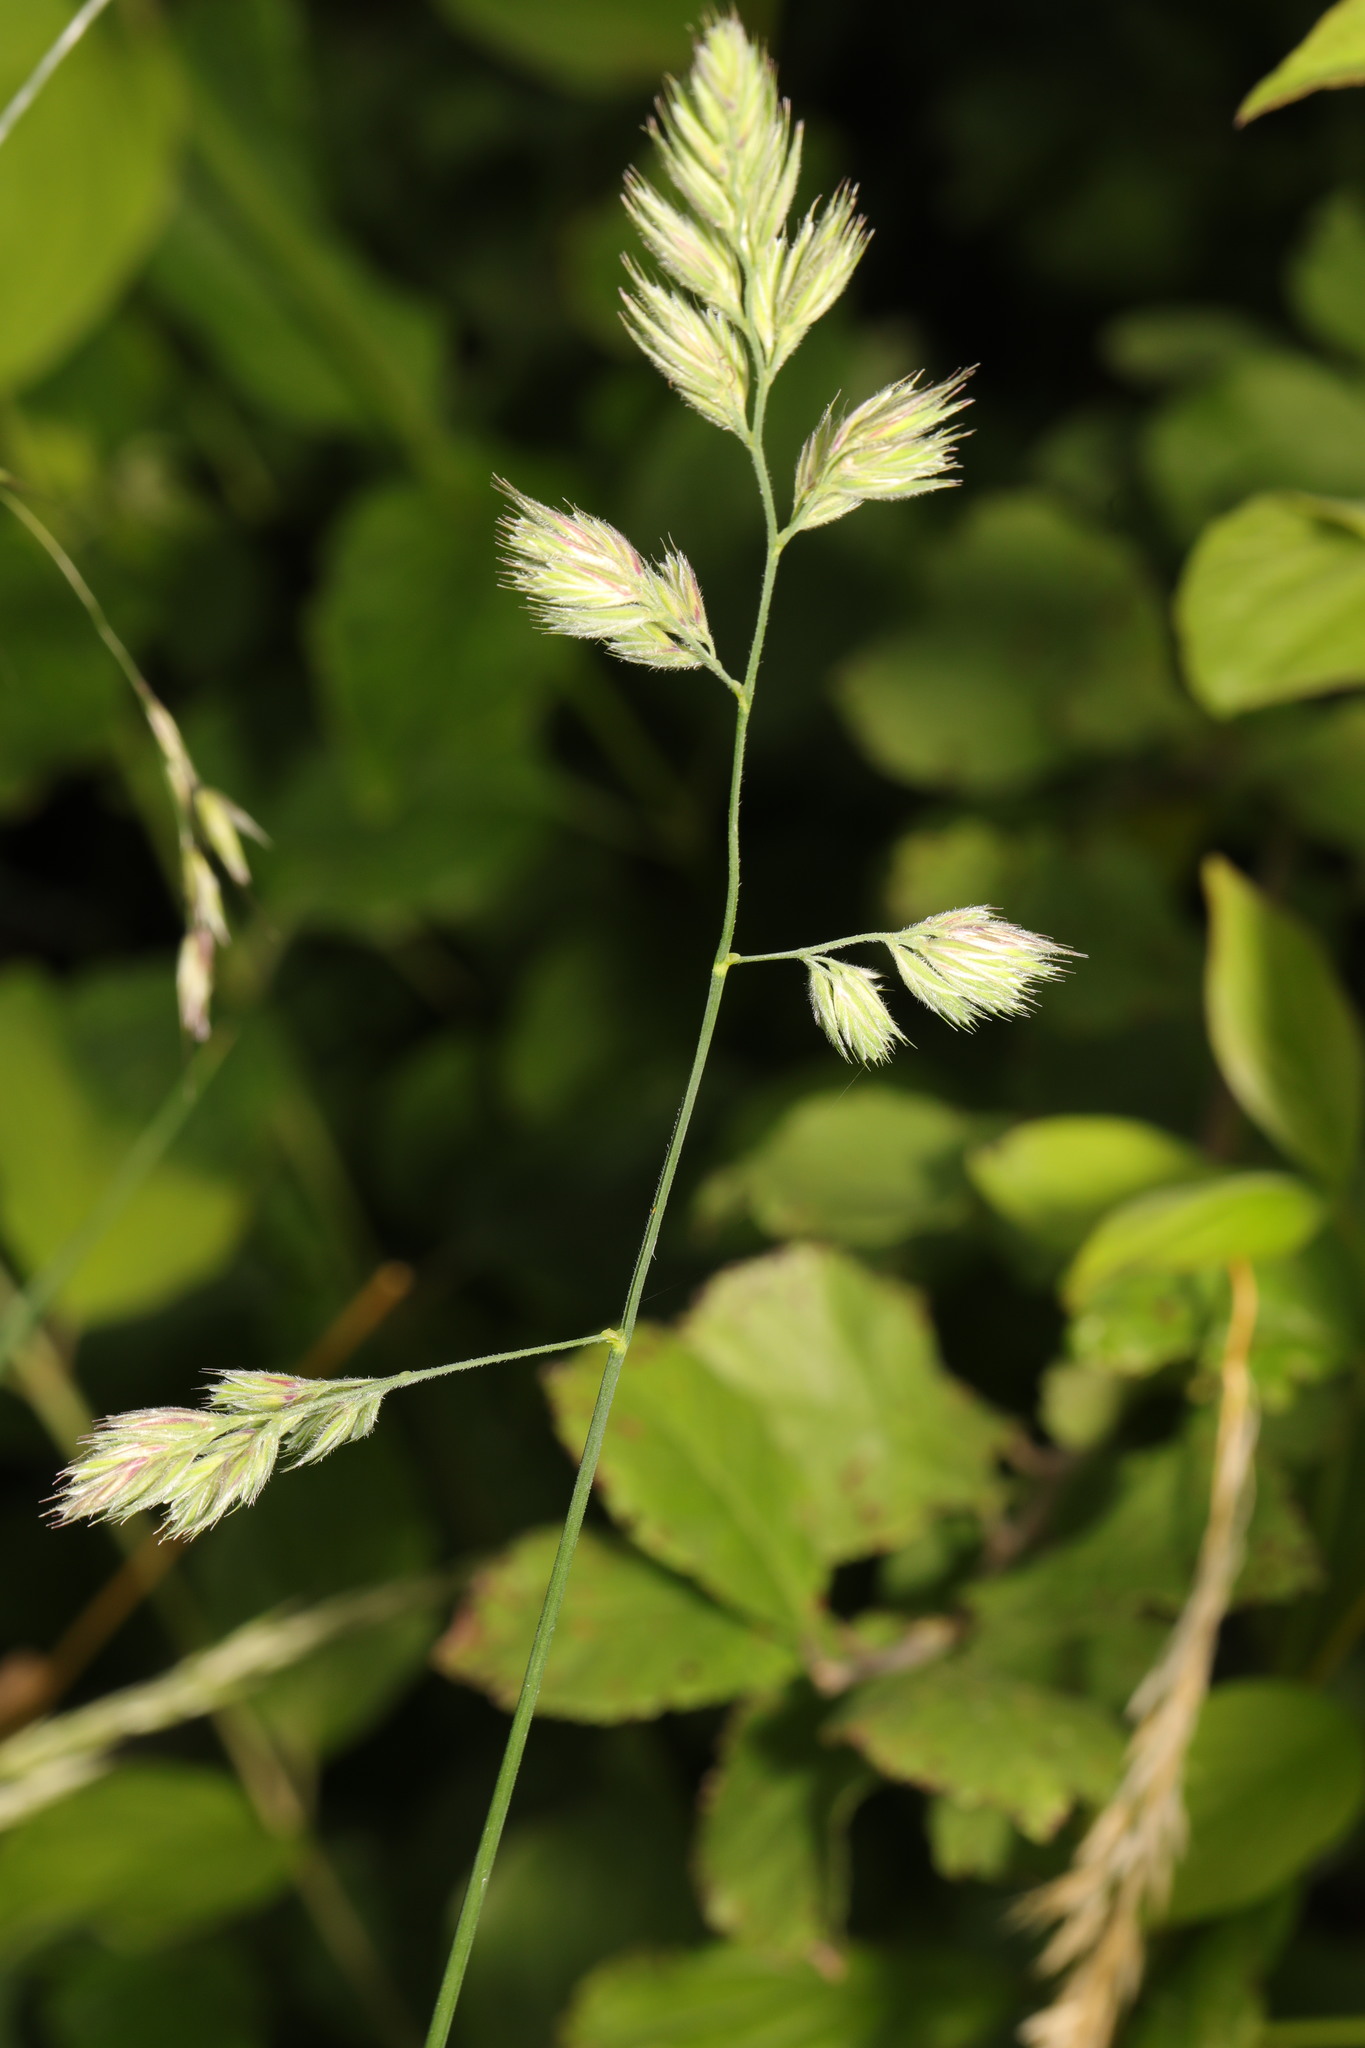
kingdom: Plantae
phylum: Tracheophyta
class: Liliopsida
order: Poales
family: Poaceae
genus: Dactylis
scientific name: Dactylis glomerata
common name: Orchardgrass
